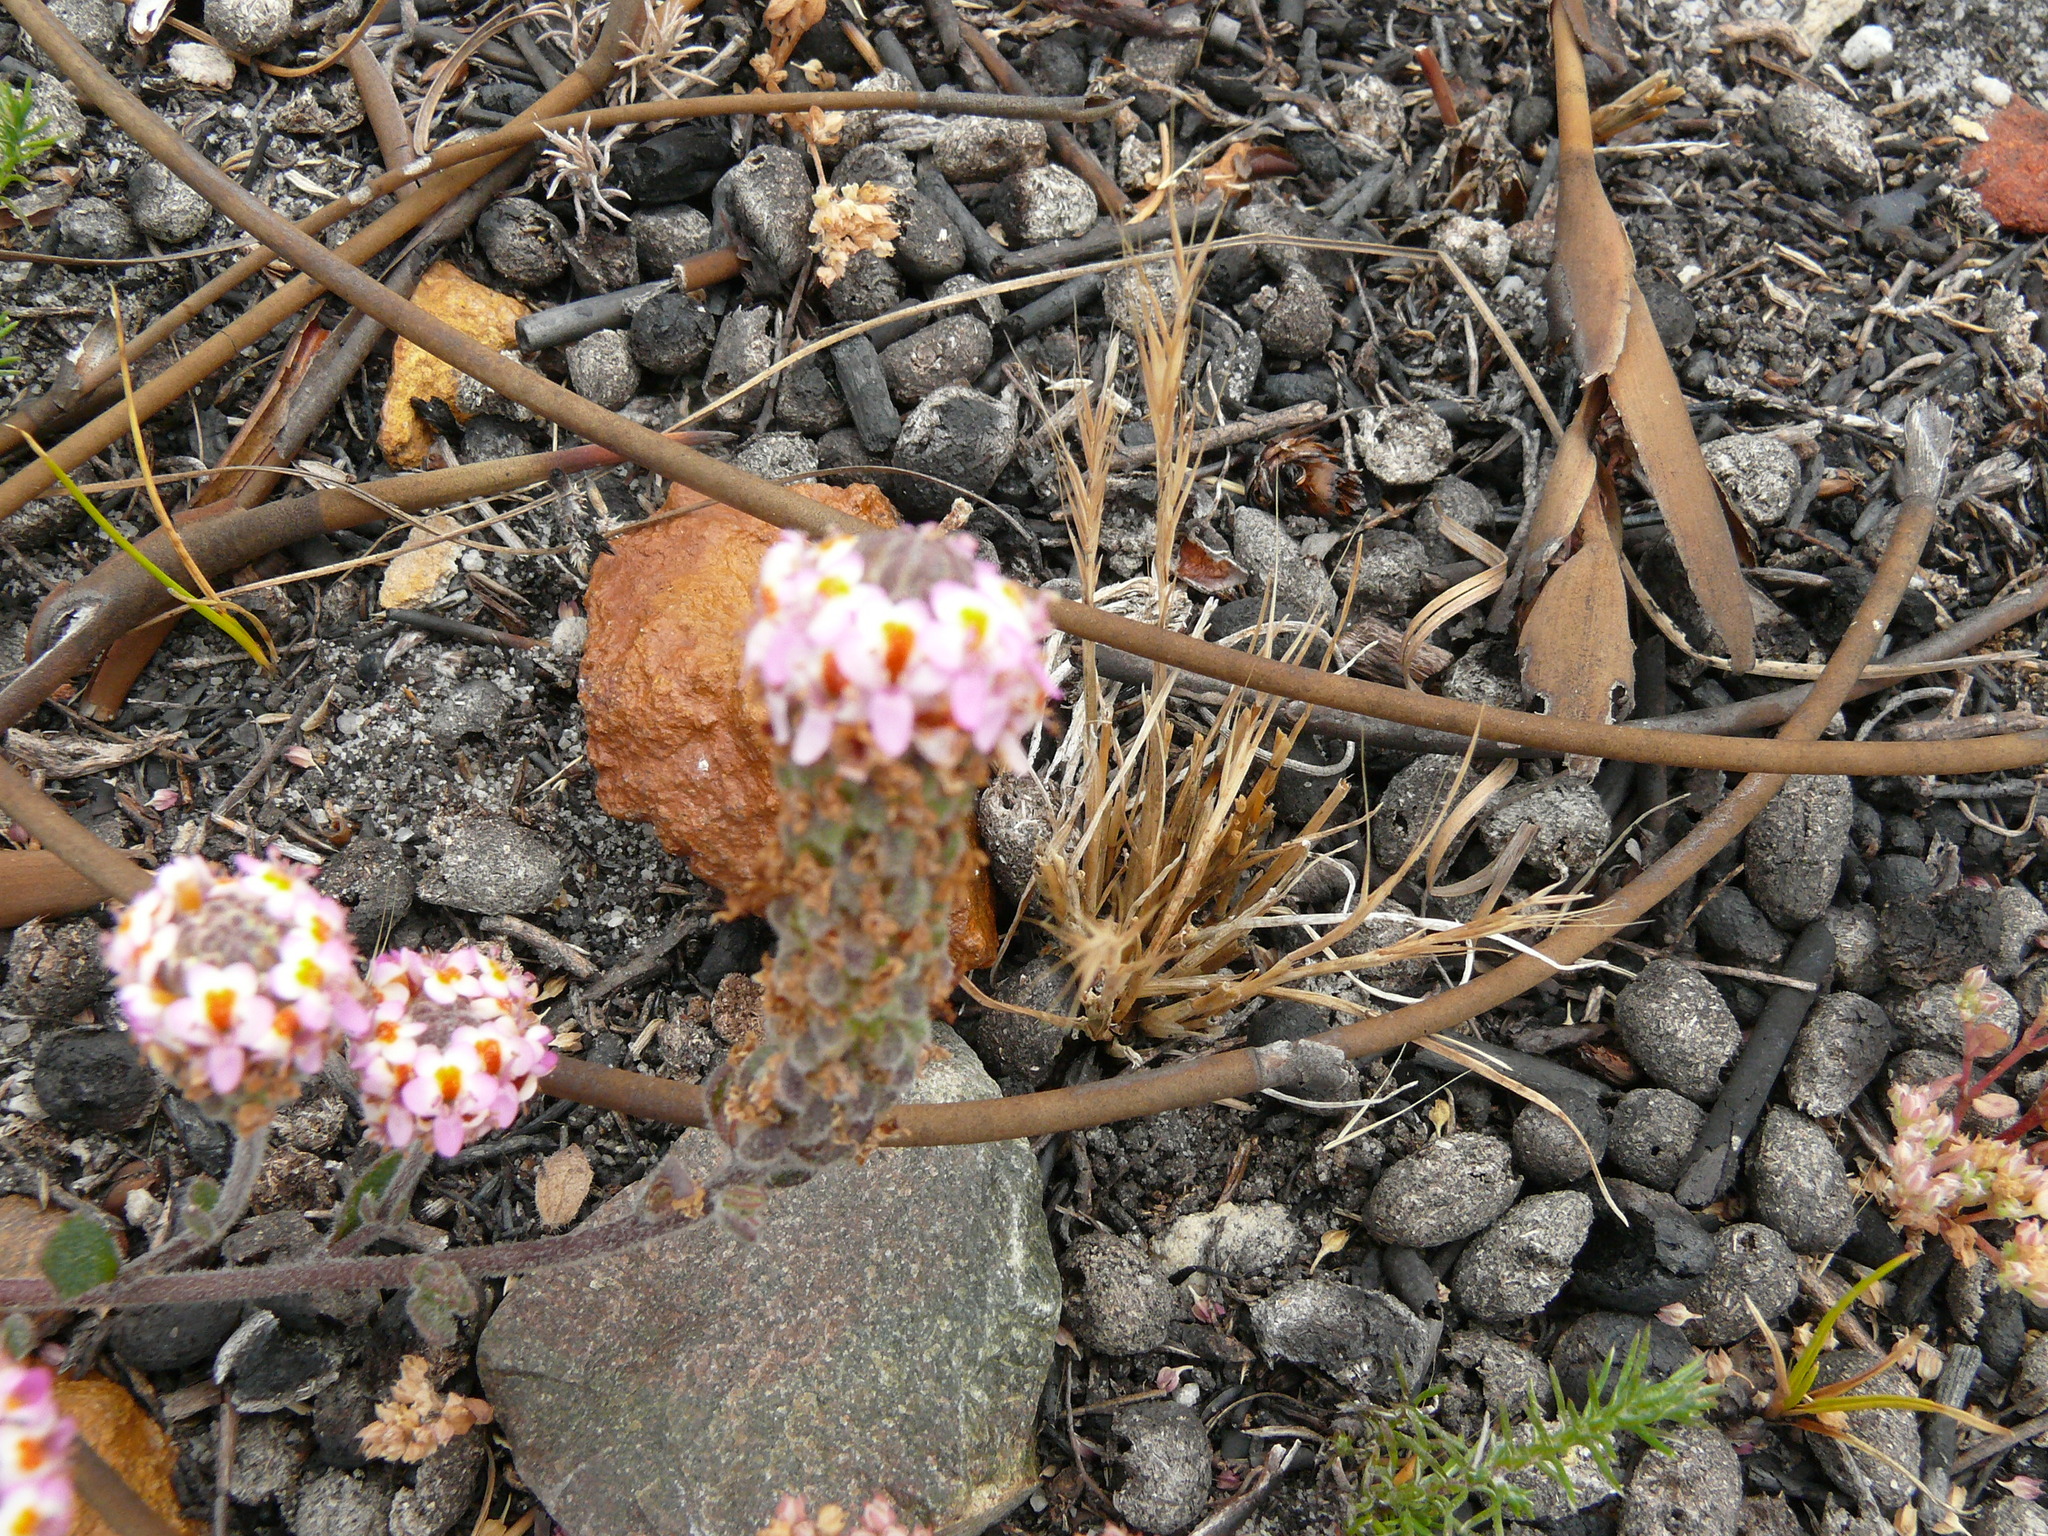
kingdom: Plantae
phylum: Tracheophyta
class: Magnoliopsida
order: Lamiales
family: Scrophulariaceae
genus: Pseudoselago
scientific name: Pseudoselago bella
